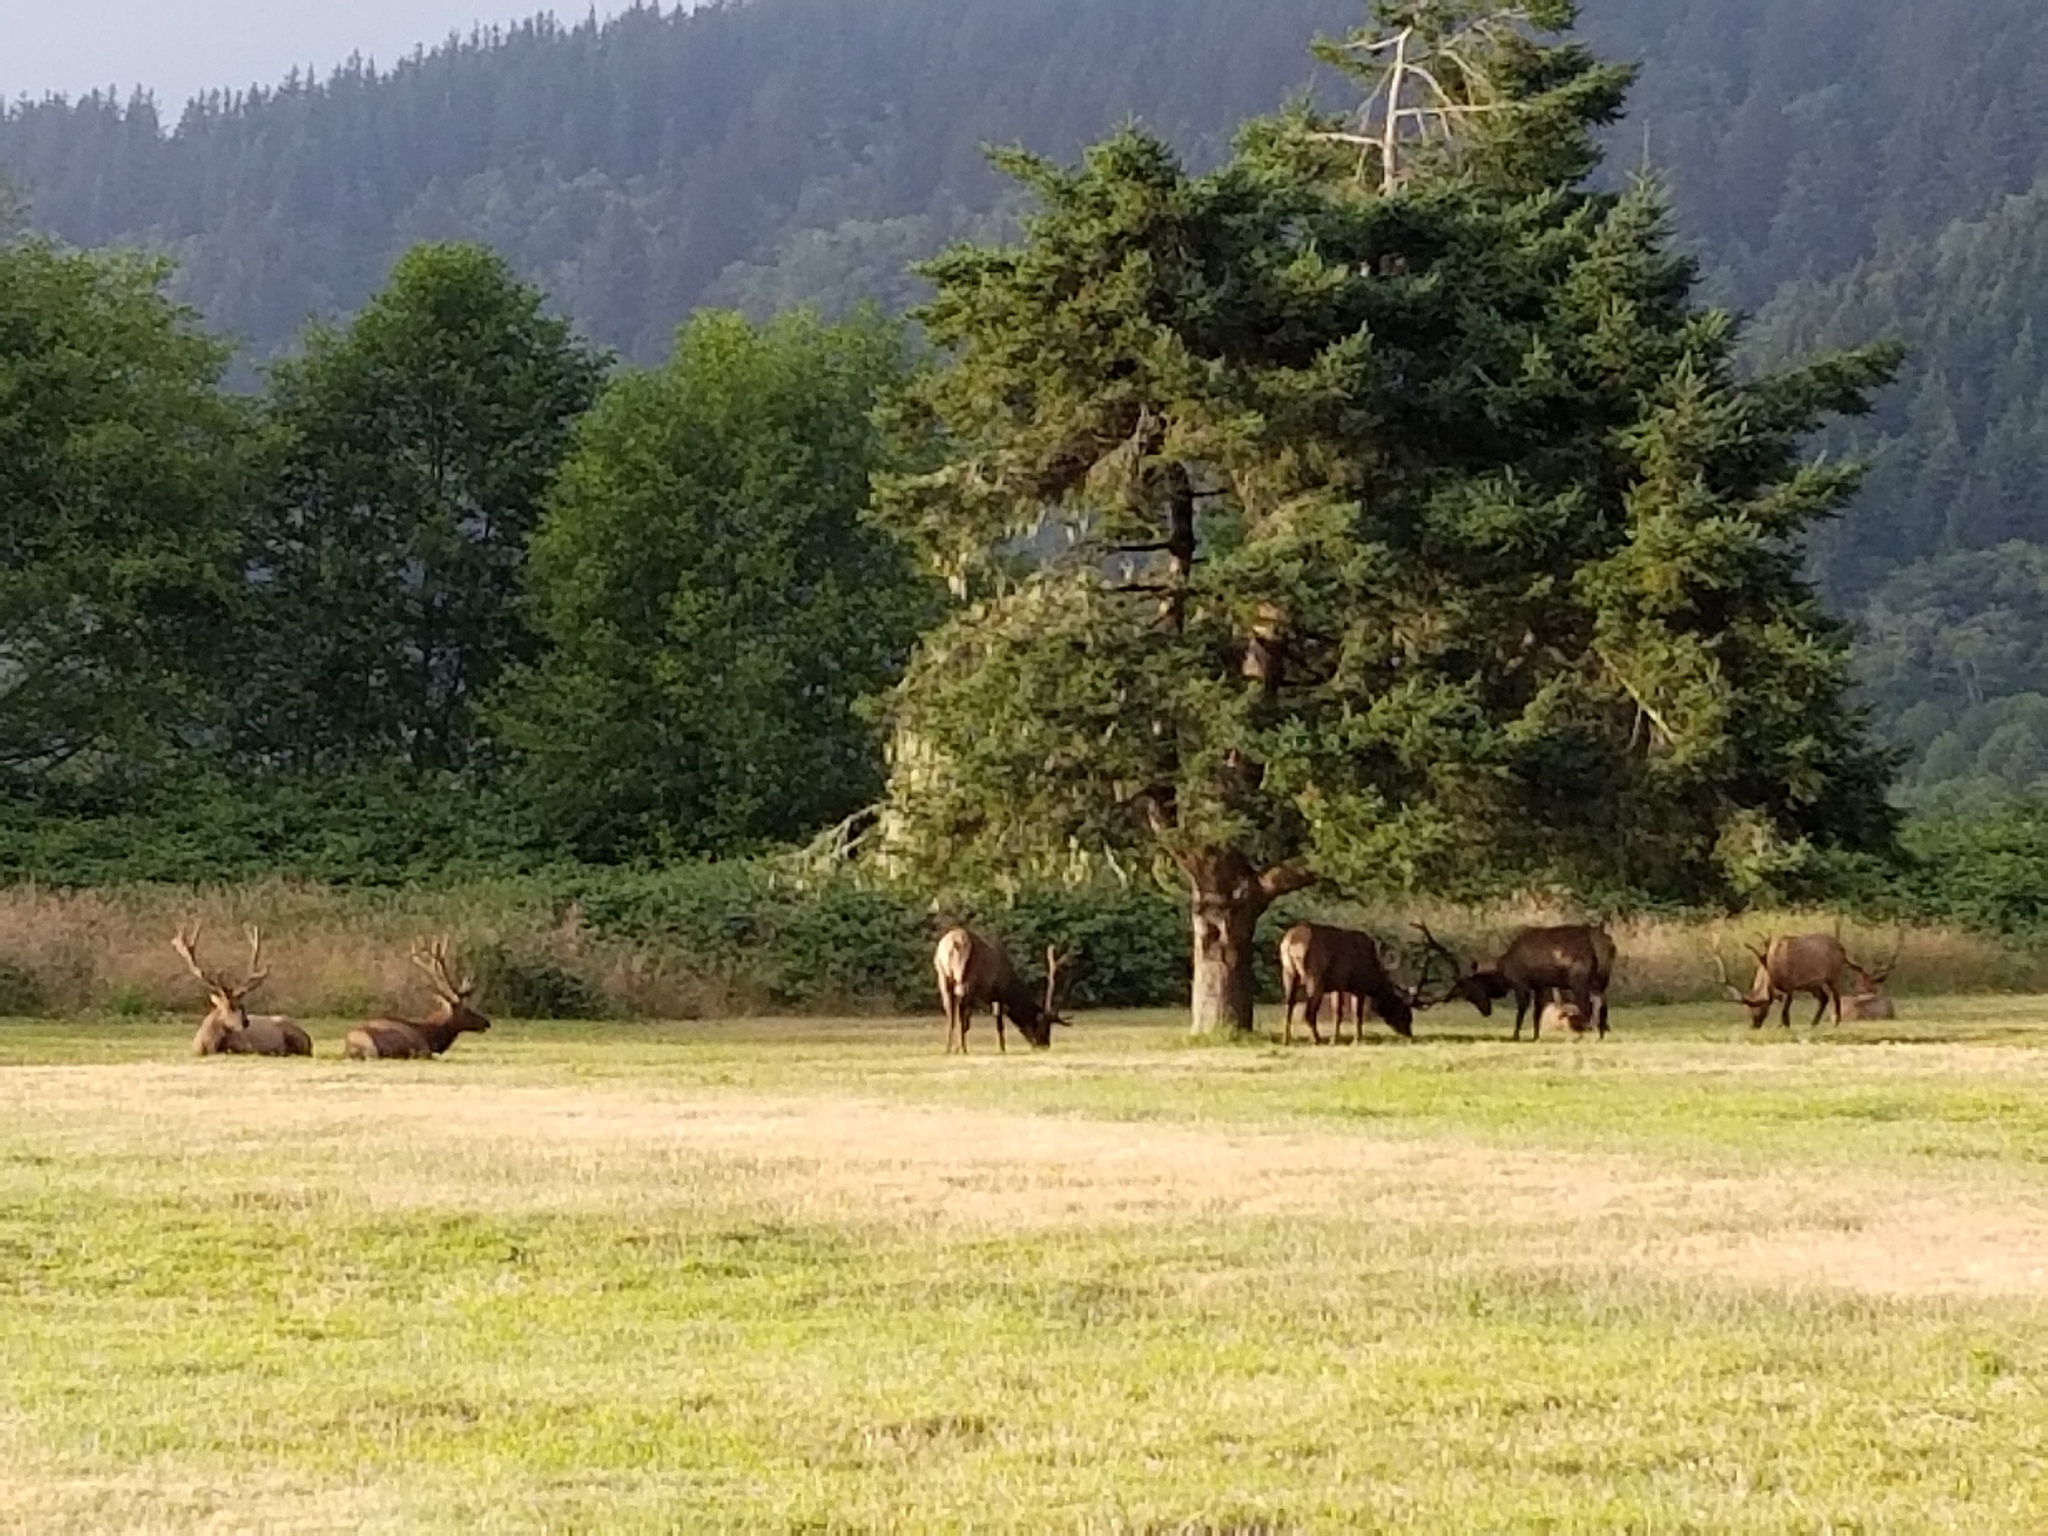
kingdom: Animalia
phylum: Chordata
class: Mammalia
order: Artiodactyla
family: Cervidae
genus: Cervus
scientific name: Cervus elaphus
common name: Red deer
